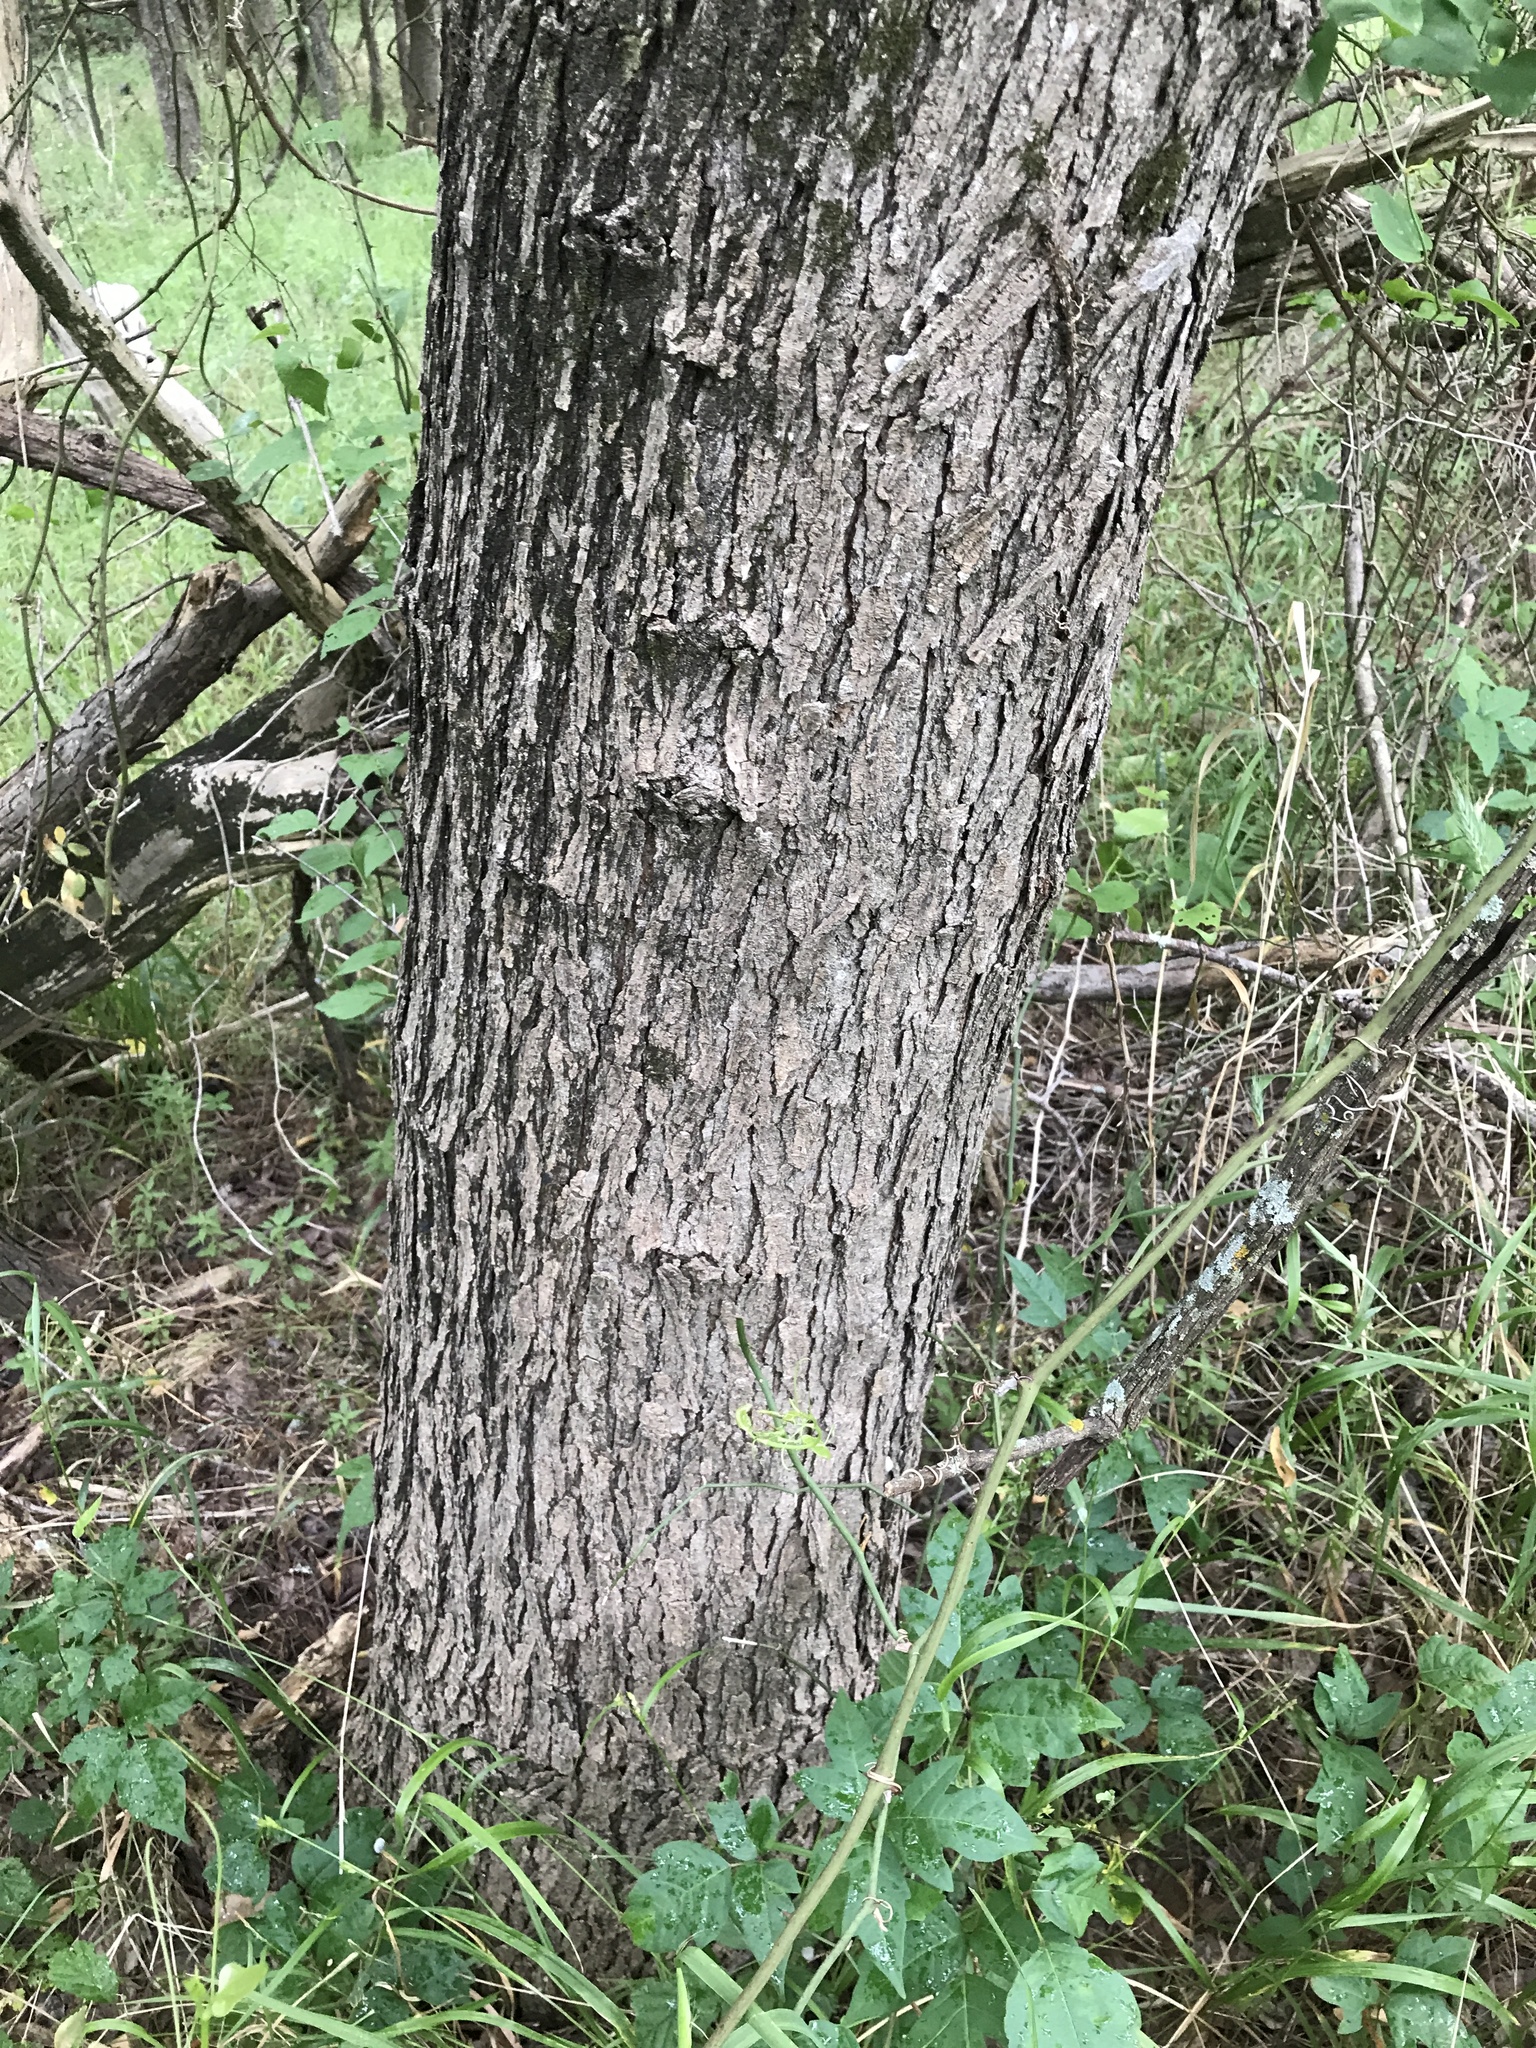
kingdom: Plantae
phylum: Tracheophyta
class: Magnoliopsida
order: Rosales
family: Moraceae
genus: Morus
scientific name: Morus rubra
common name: Red mulberry
